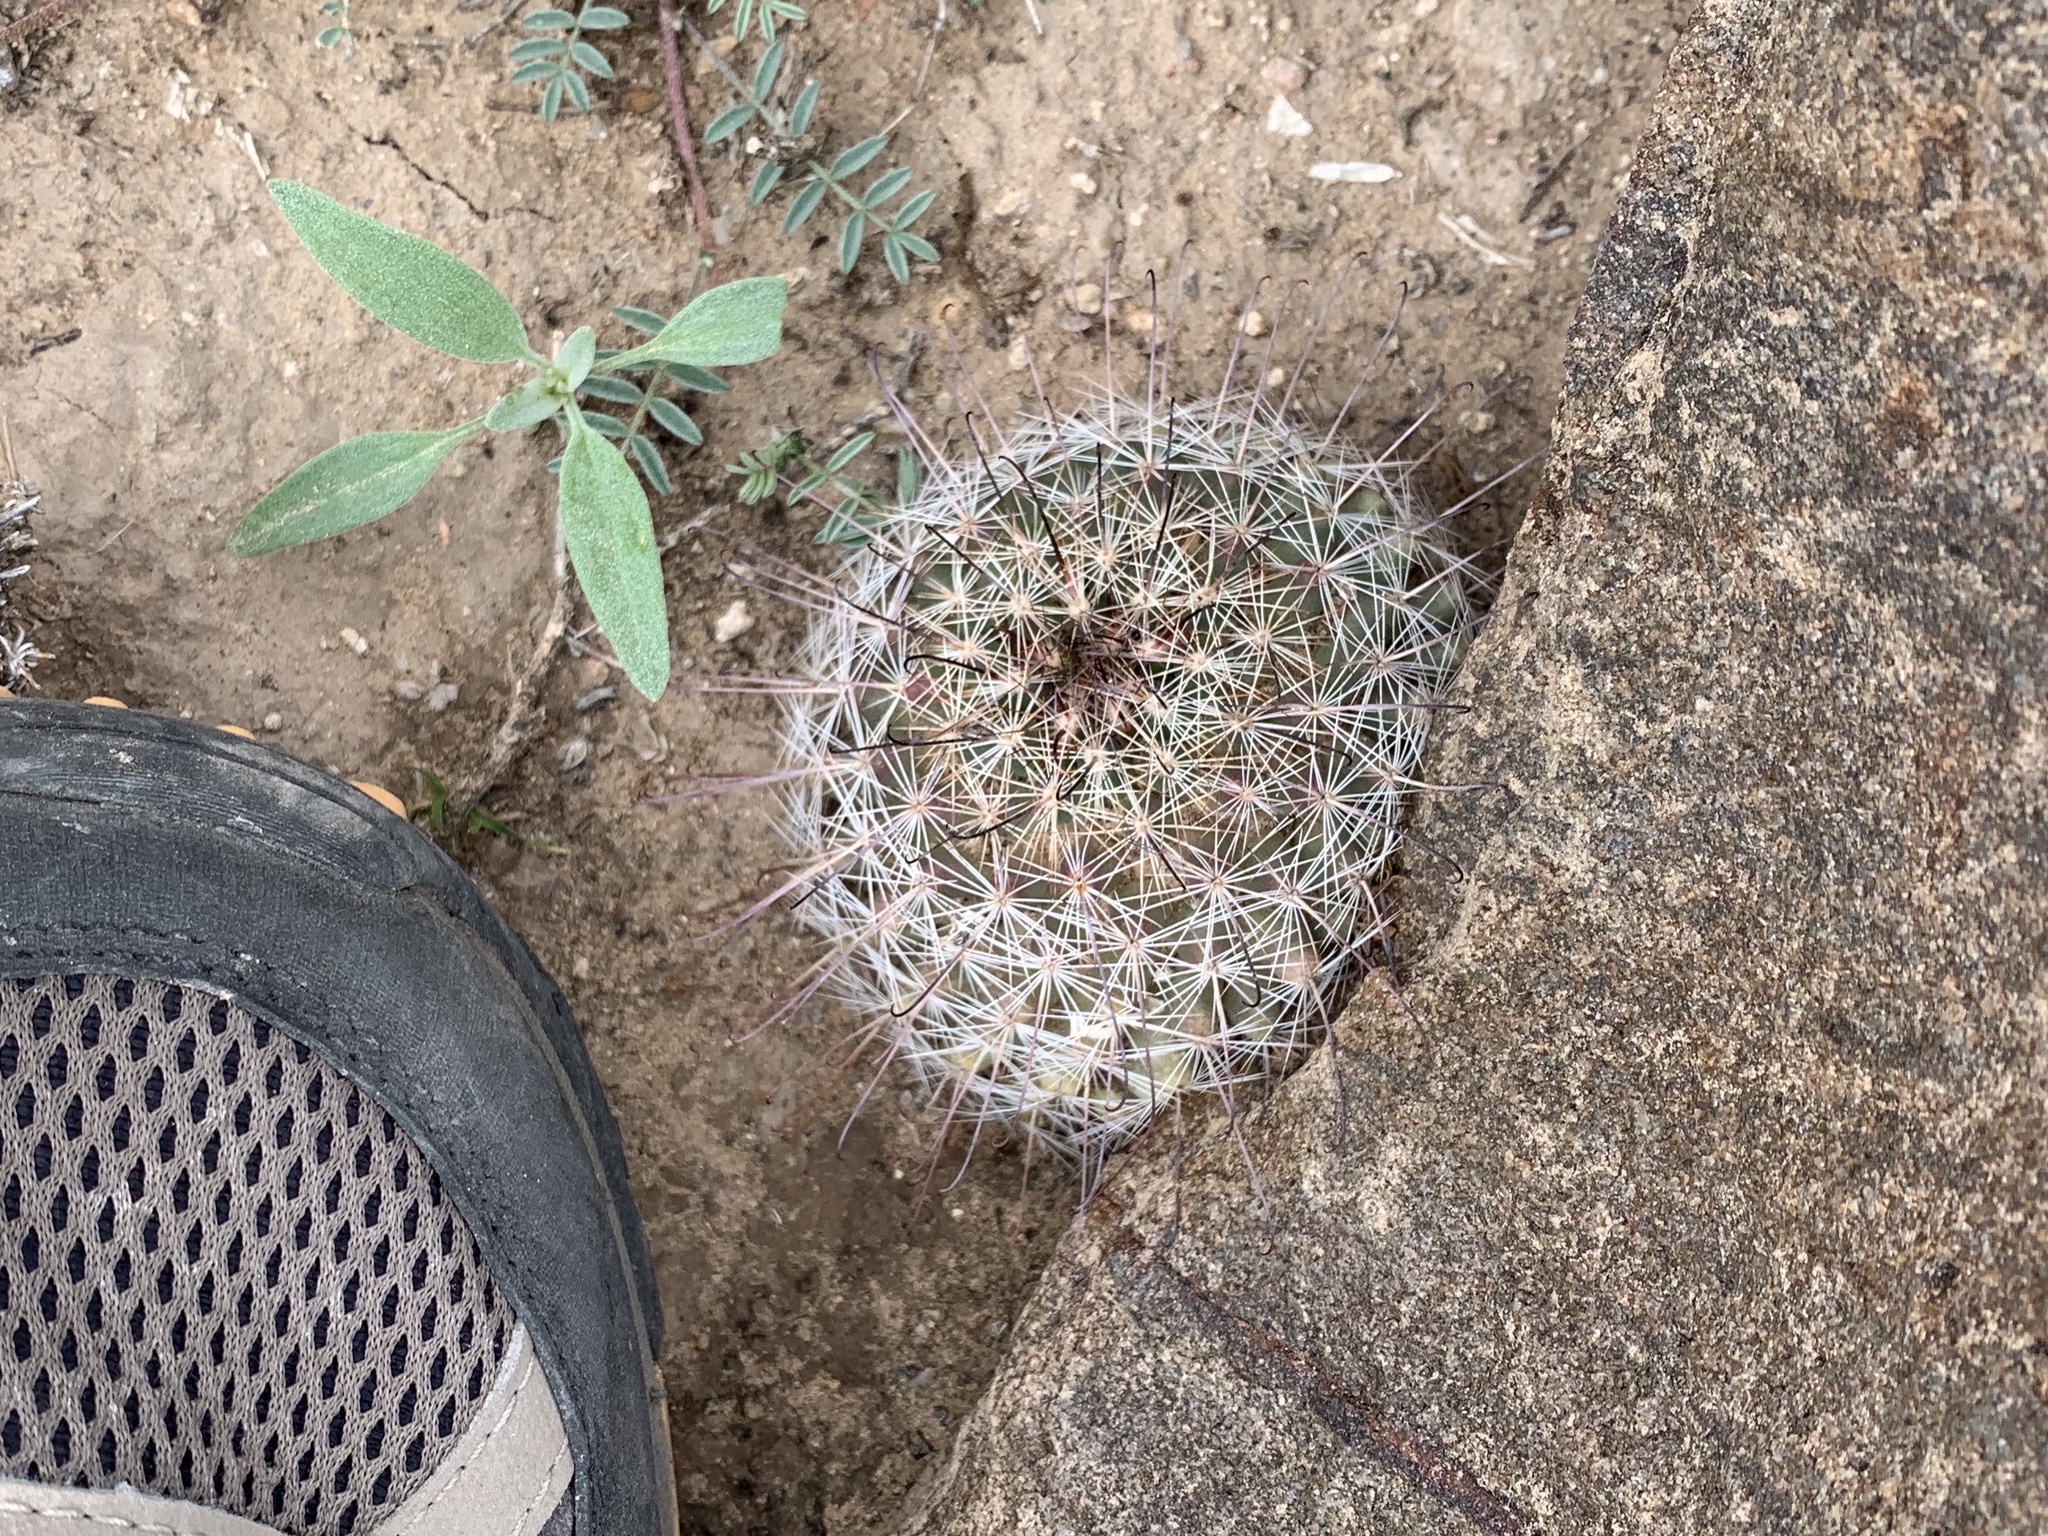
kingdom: Plantae
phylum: Tracheophyta
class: Magnoliopsida
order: Caryophyllales
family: Cactaceae
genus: Cochemiea
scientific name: Cochemiea grahamii
